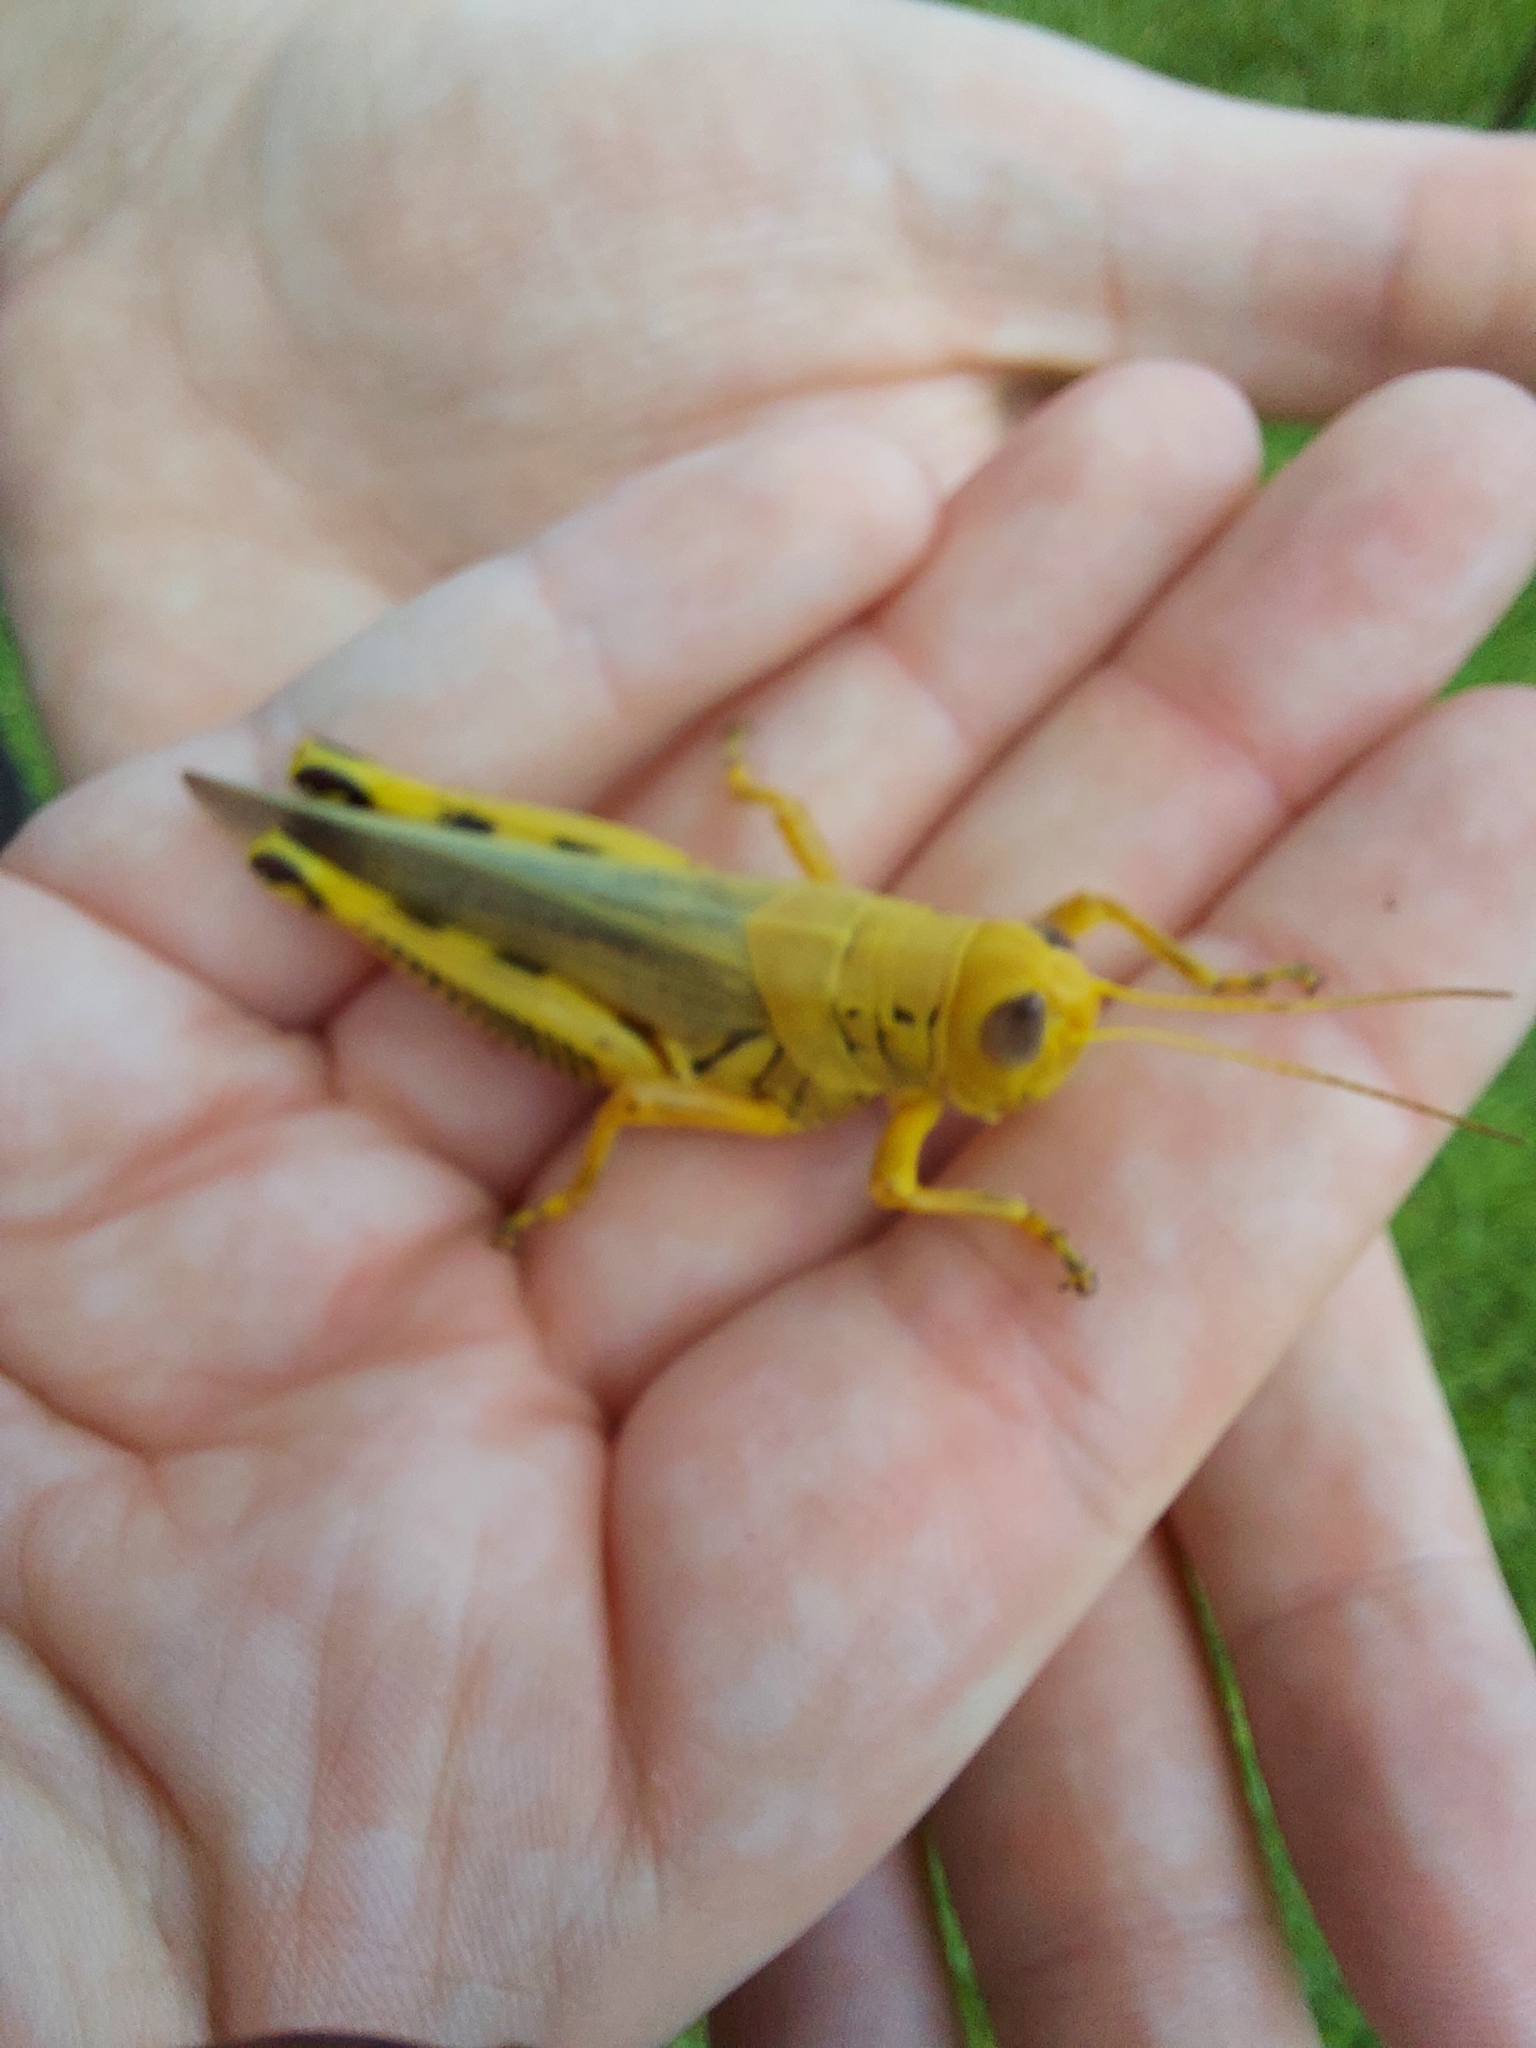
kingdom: Animalia
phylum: Arthropoda
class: Insecta
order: Orthoptera
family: Acrididae
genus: Melanoplus
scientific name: Melanoplus differentialis
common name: Differential grasshopper
